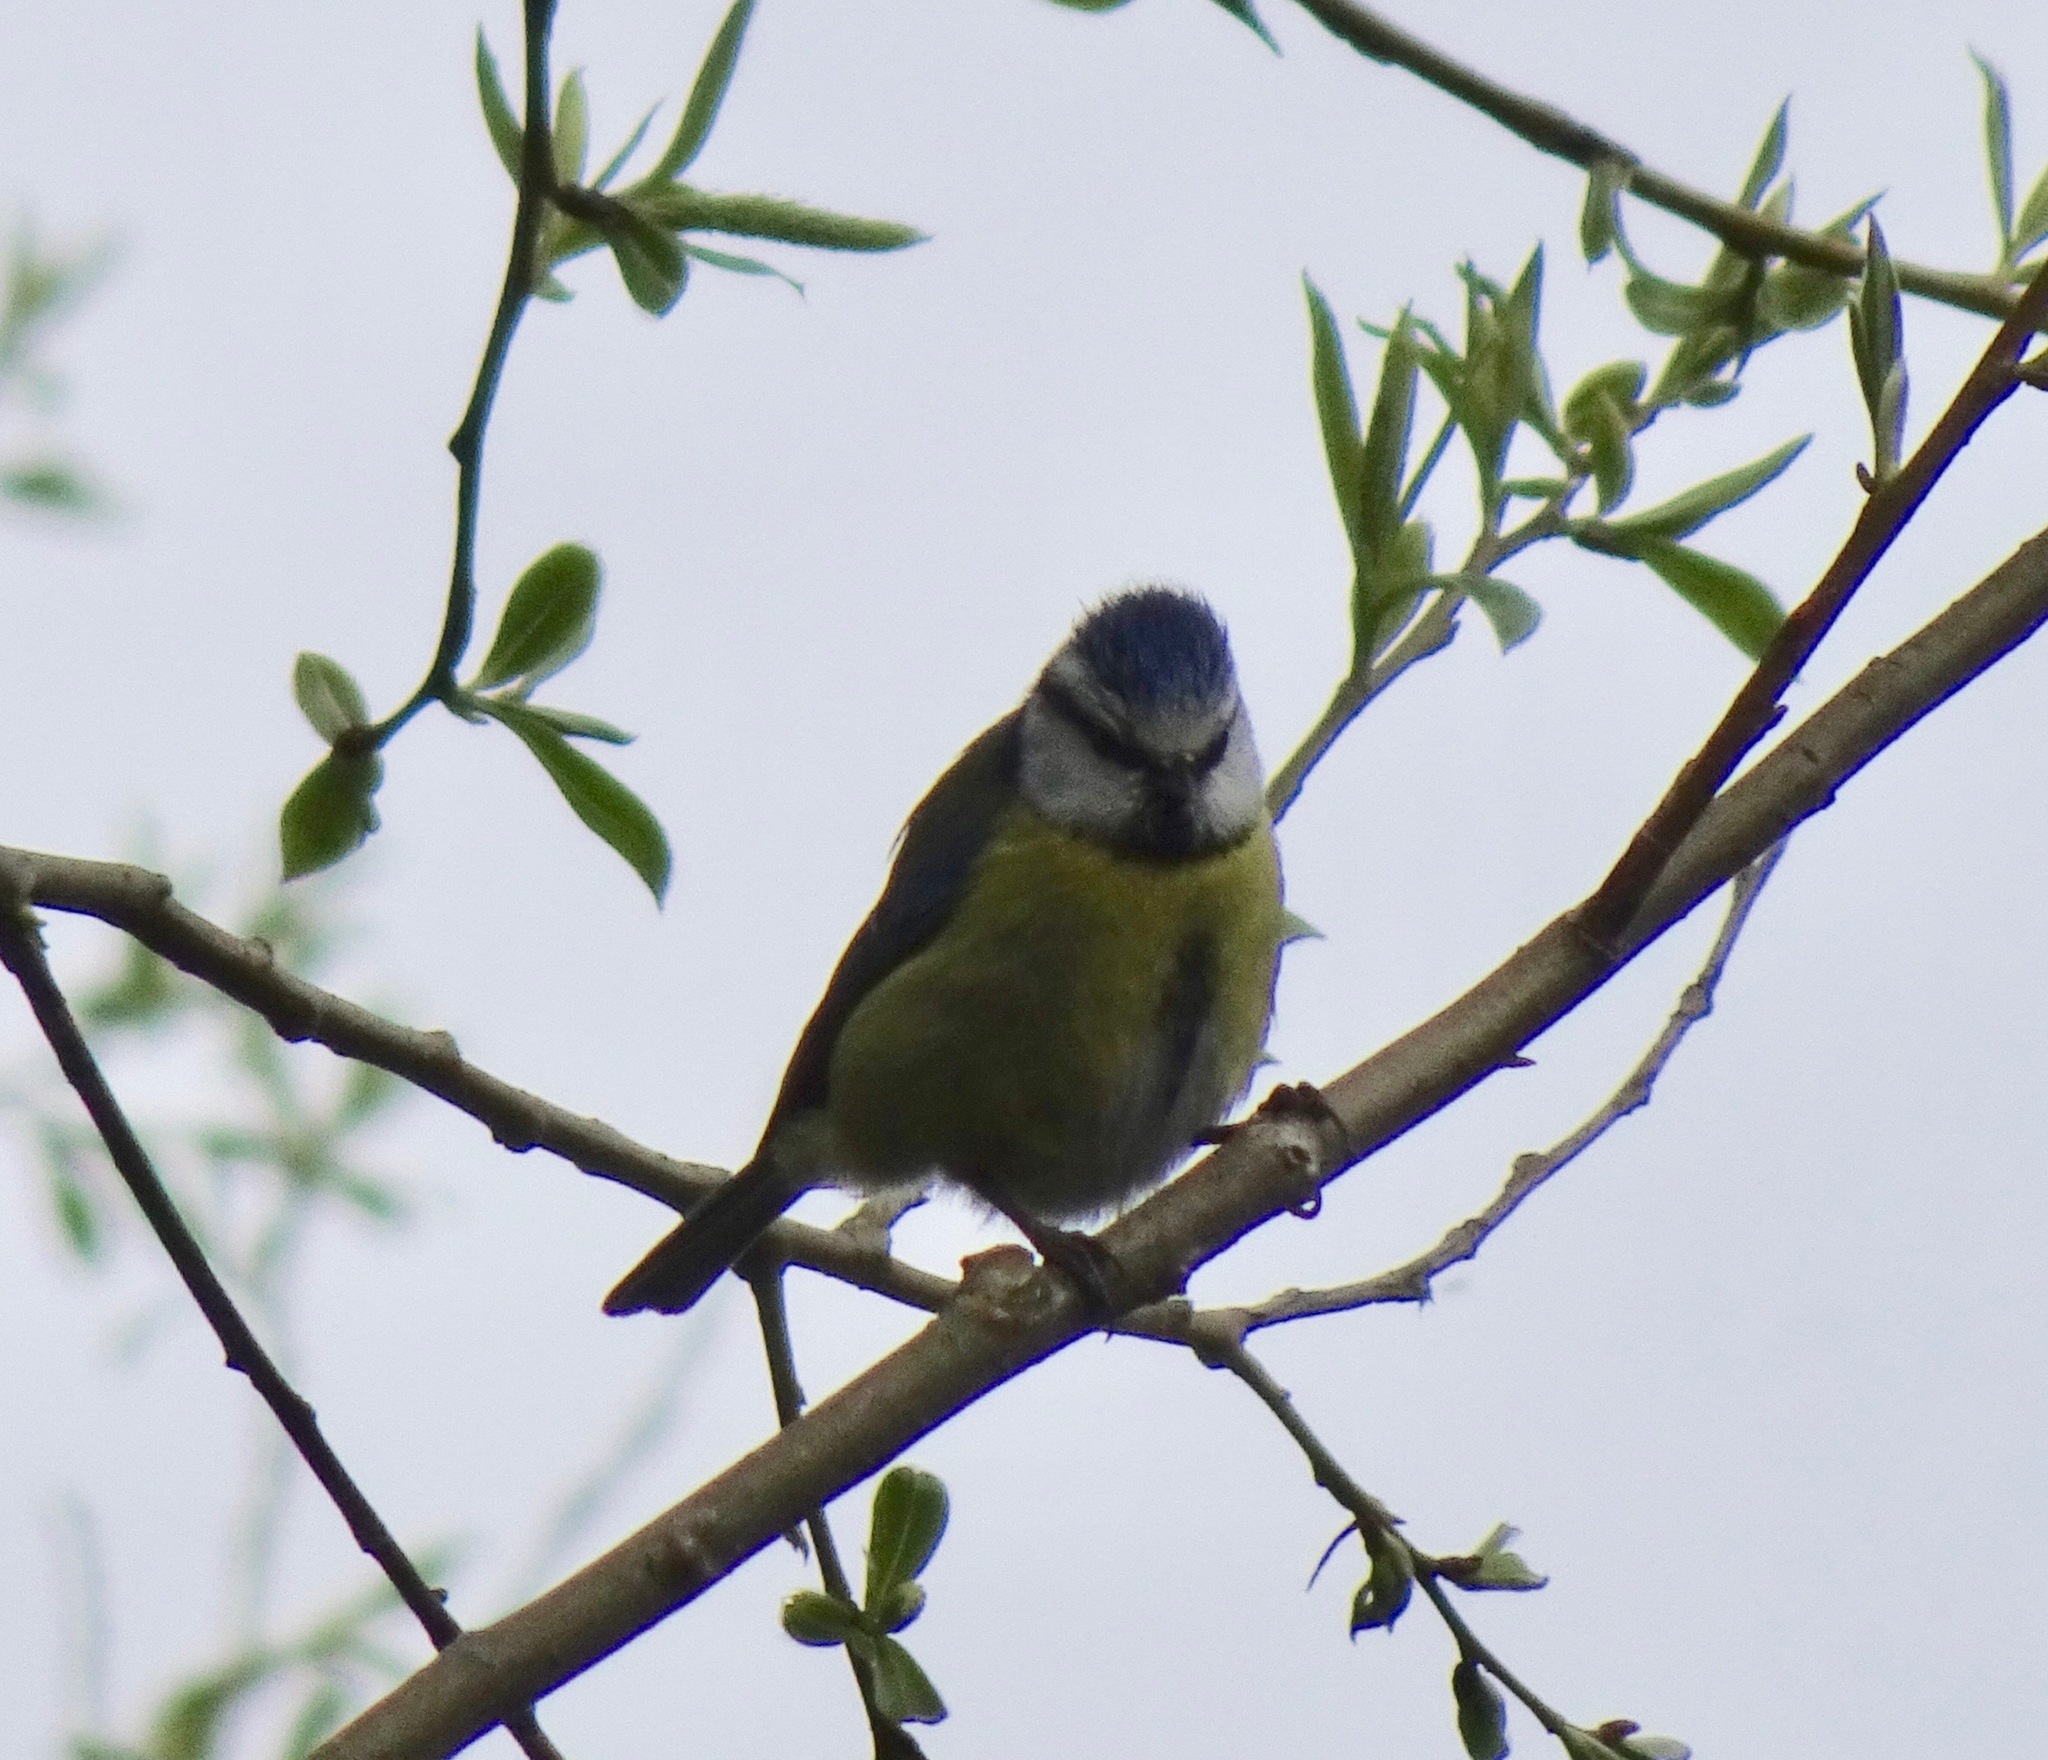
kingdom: Animalia
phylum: Chordata
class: Aves
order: Passeriformes
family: Paridae
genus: Cyanistes
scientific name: Cyanistes caeruleus
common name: Eurasian blue tit
